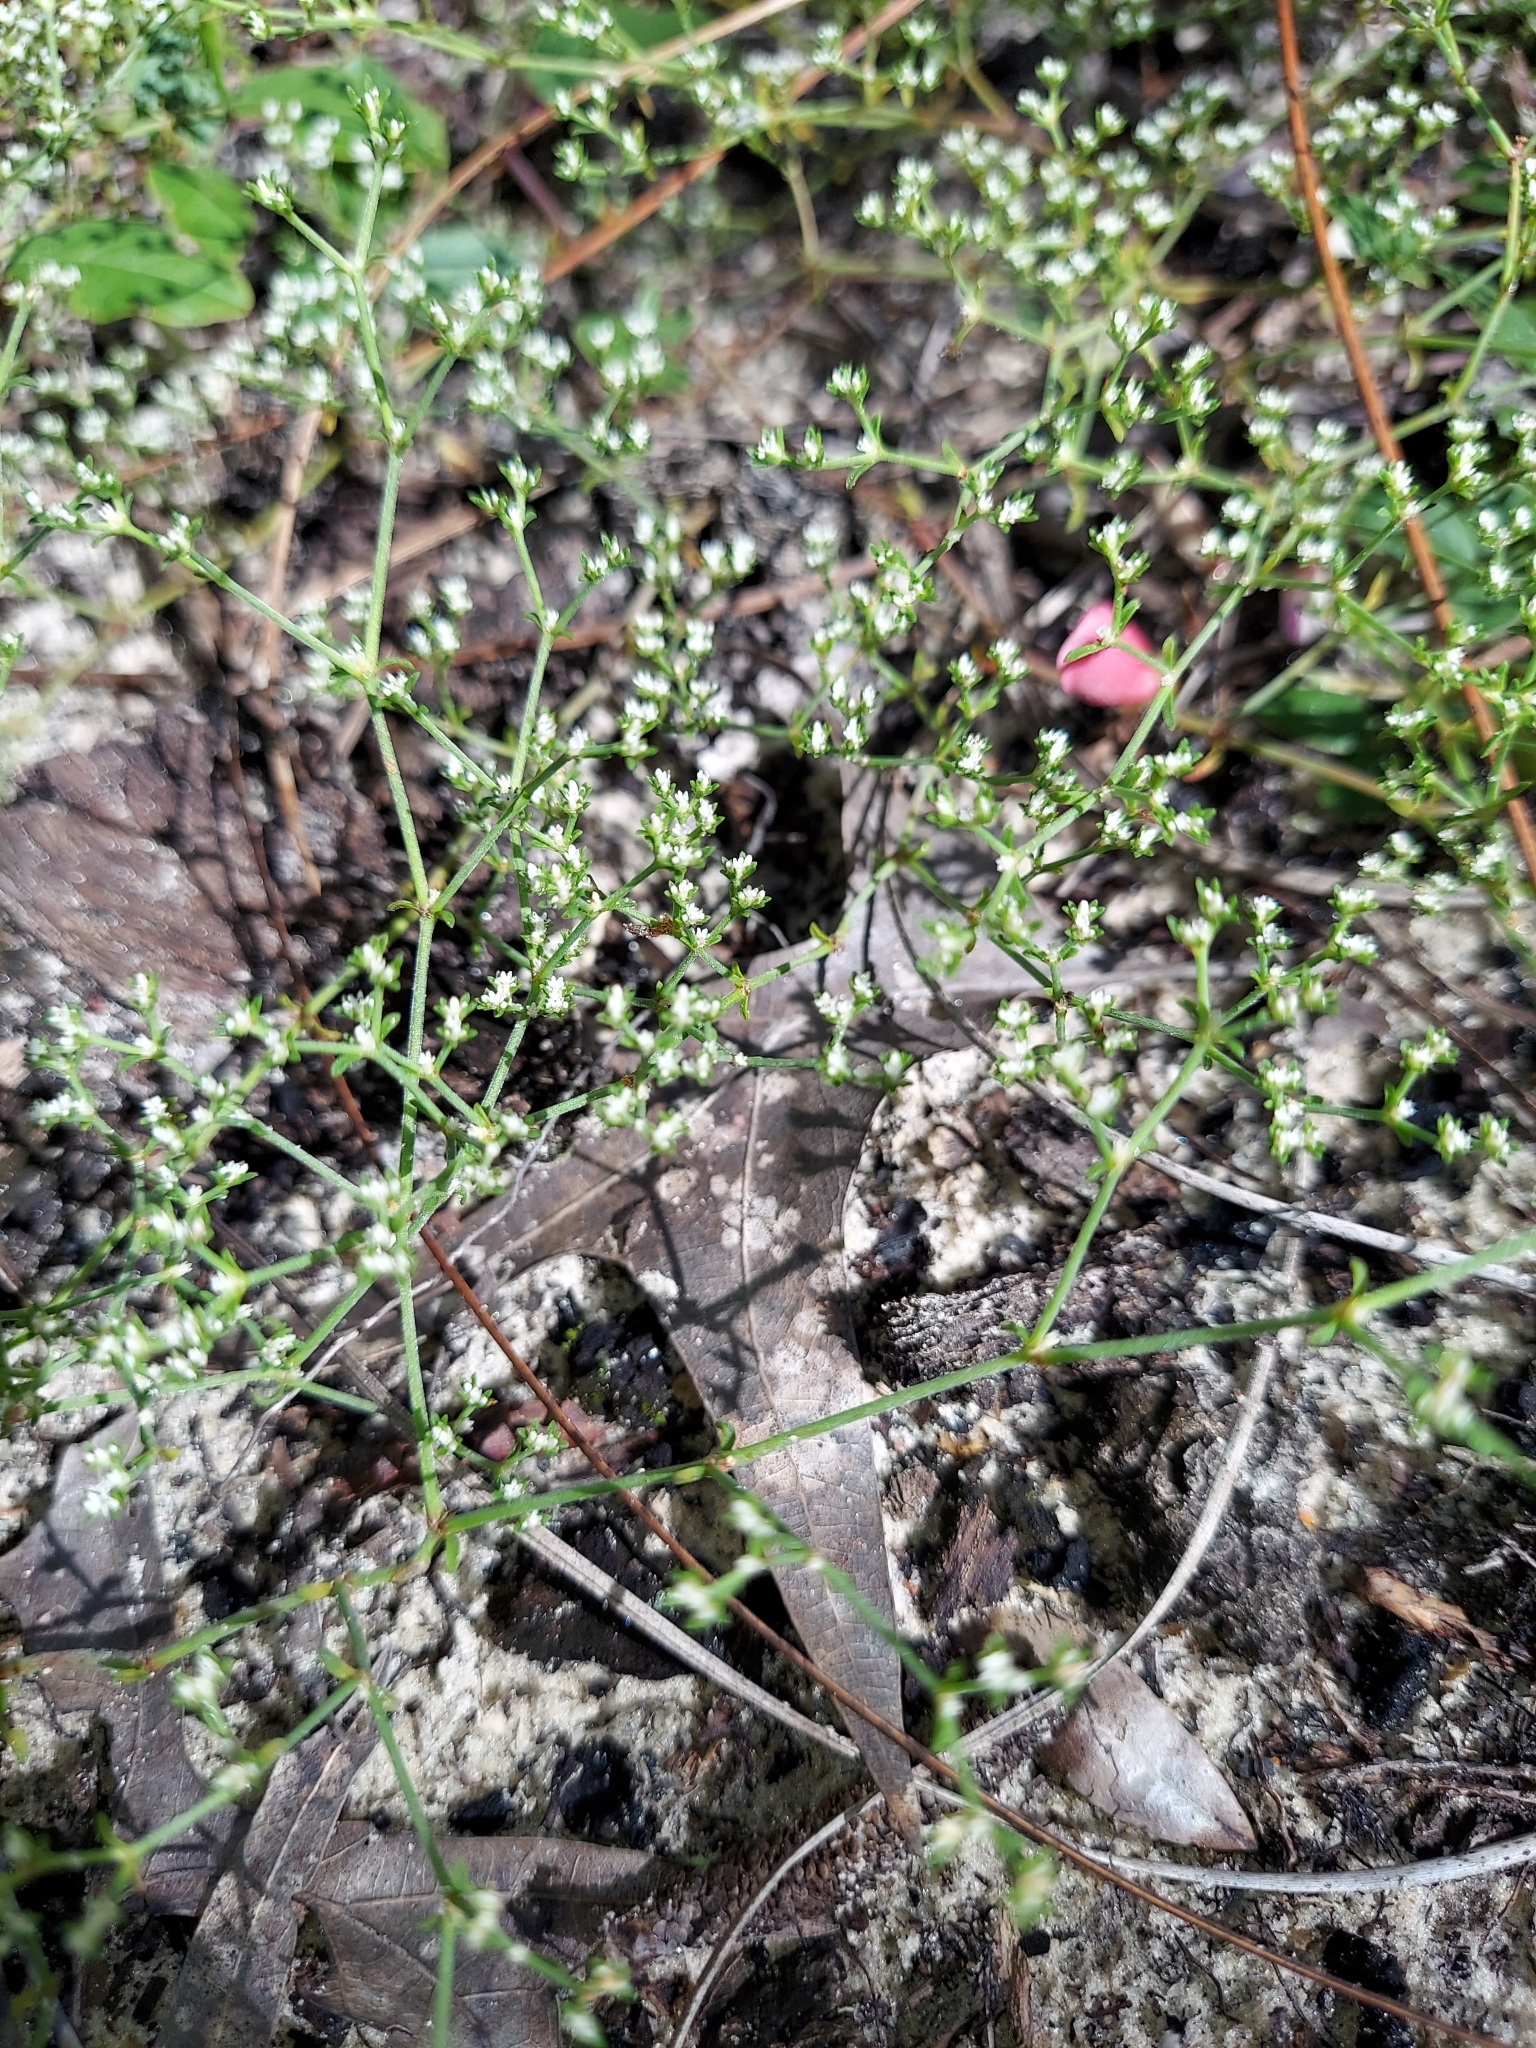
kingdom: Plantae
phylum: Tracheophyta
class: Magnoliopsida
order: Caryophyllales
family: Caryophyllaceae
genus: Paronychia
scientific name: Paronychia patula
